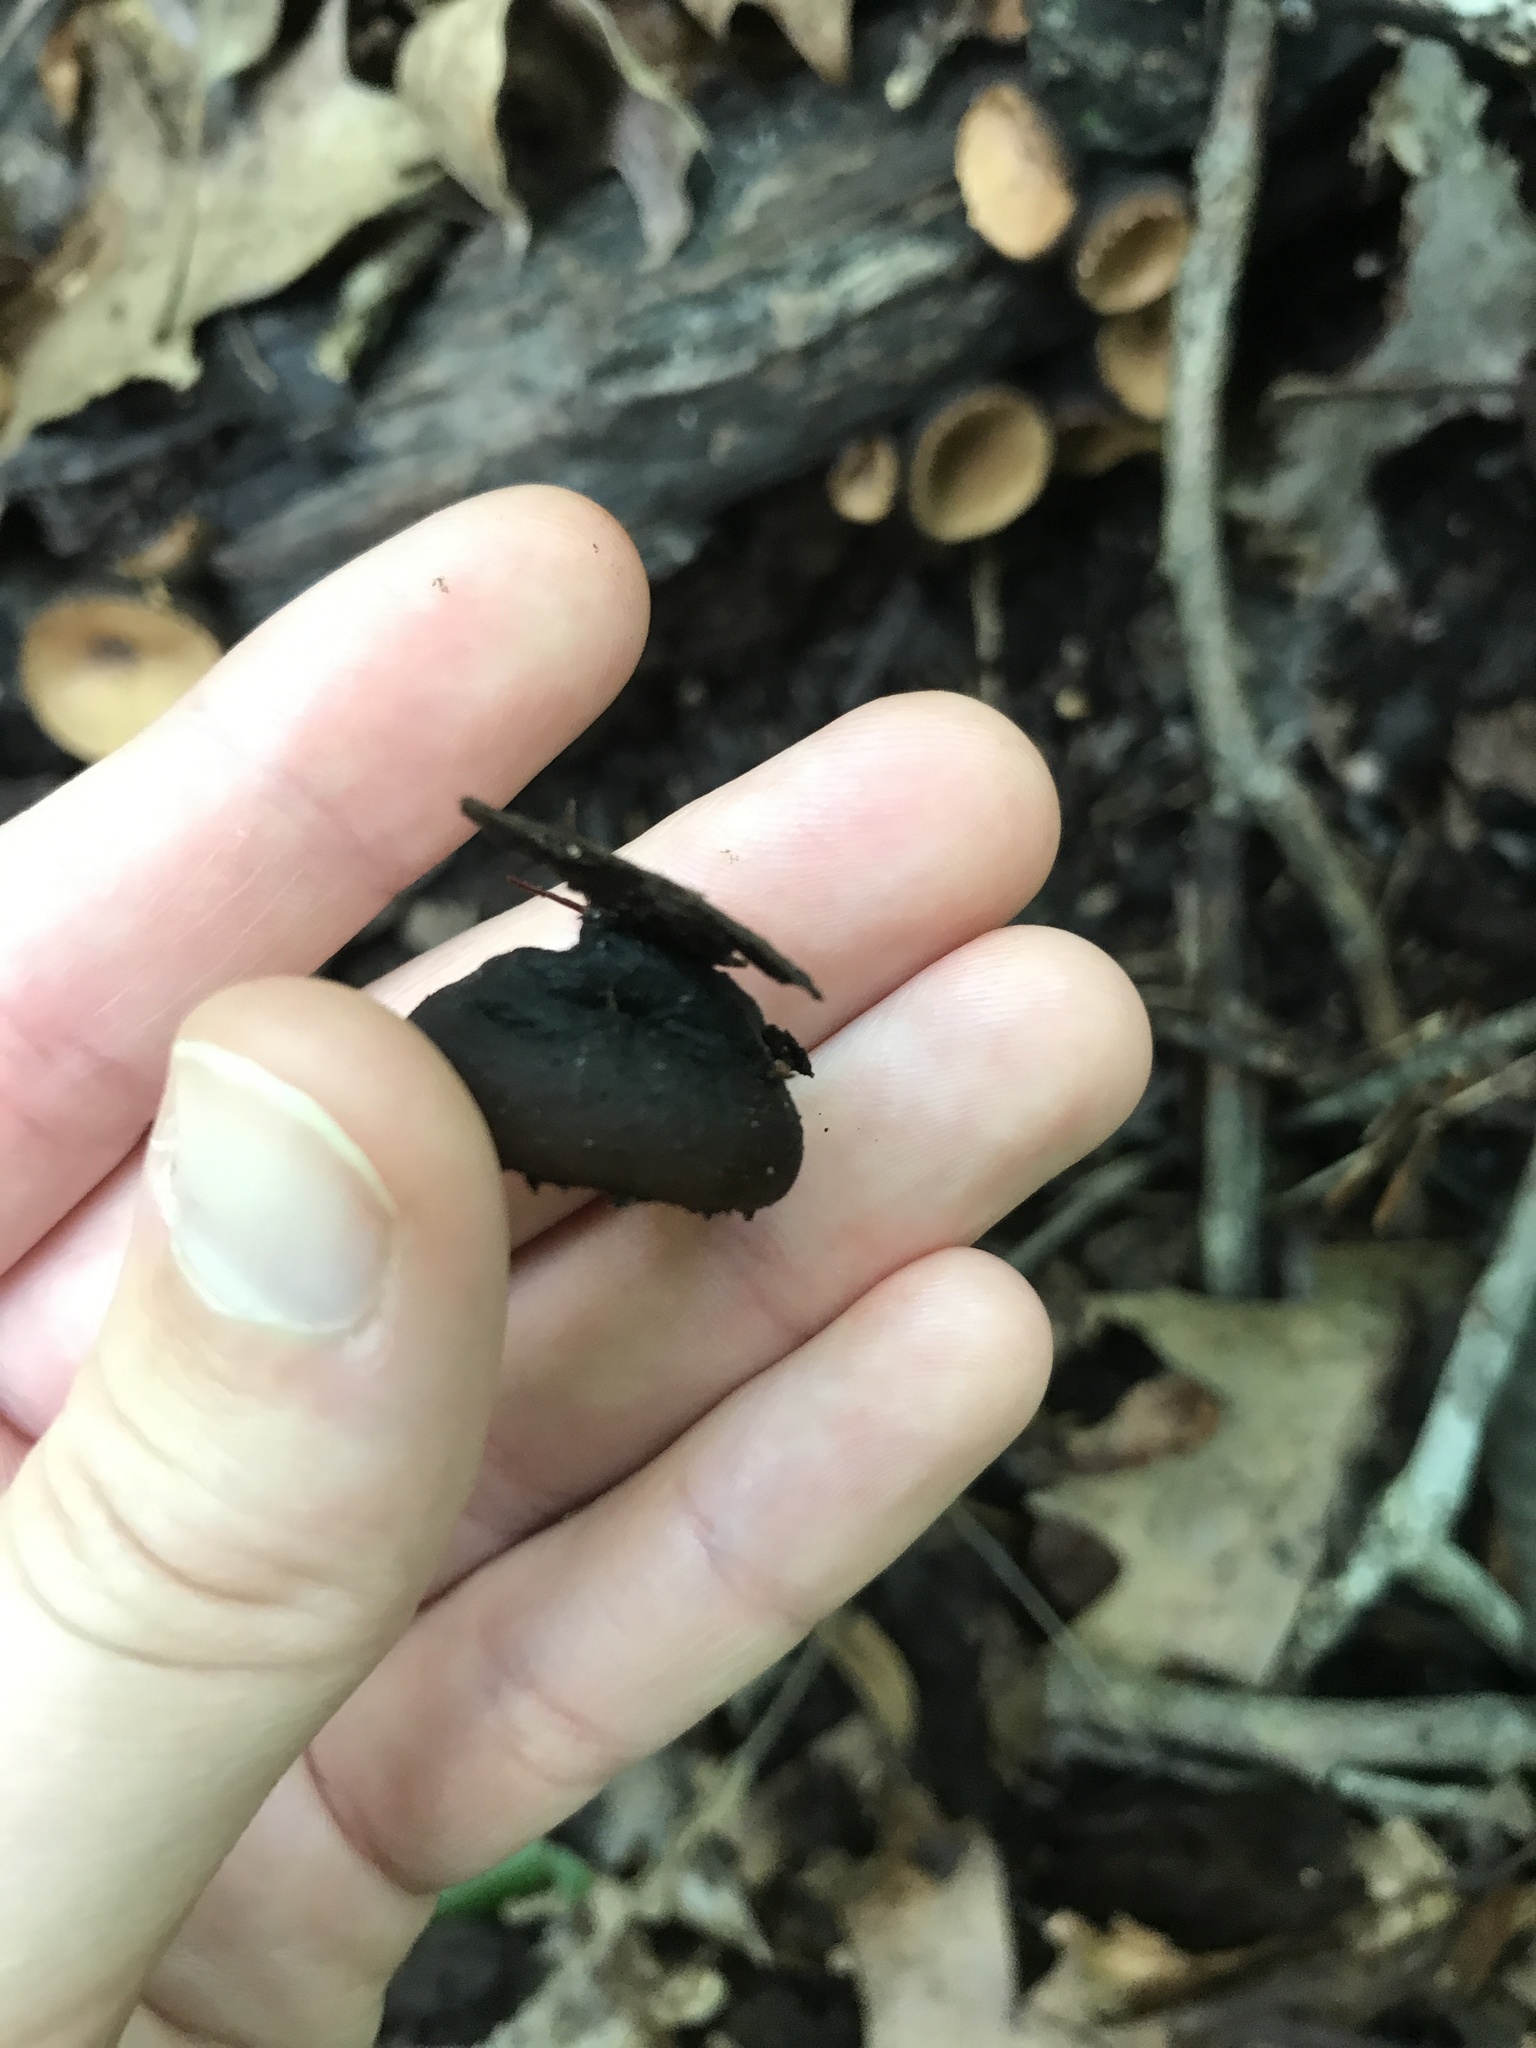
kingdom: Fungi
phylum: Ascomycota
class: Pezizomycetes
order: Pezizales
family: Sarcosomataceae
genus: Galiella
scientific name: Galiella rufa
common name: Hairy rubber cup
